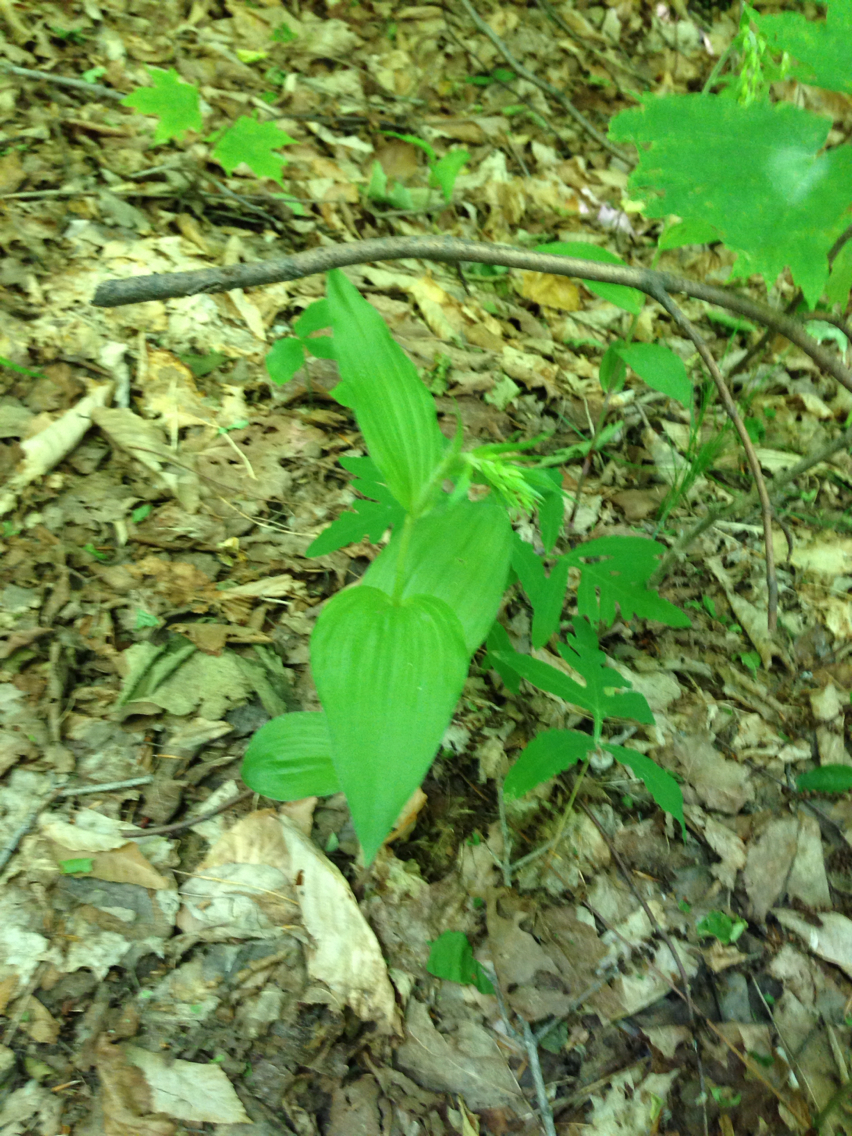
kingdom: Plantae
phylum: Tracheophyta
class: Liliopsida
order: Asparagales
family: Orchidaceae
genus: Epipactis
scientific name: Epipactis helleborine
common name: Broad-leaved helleborine
